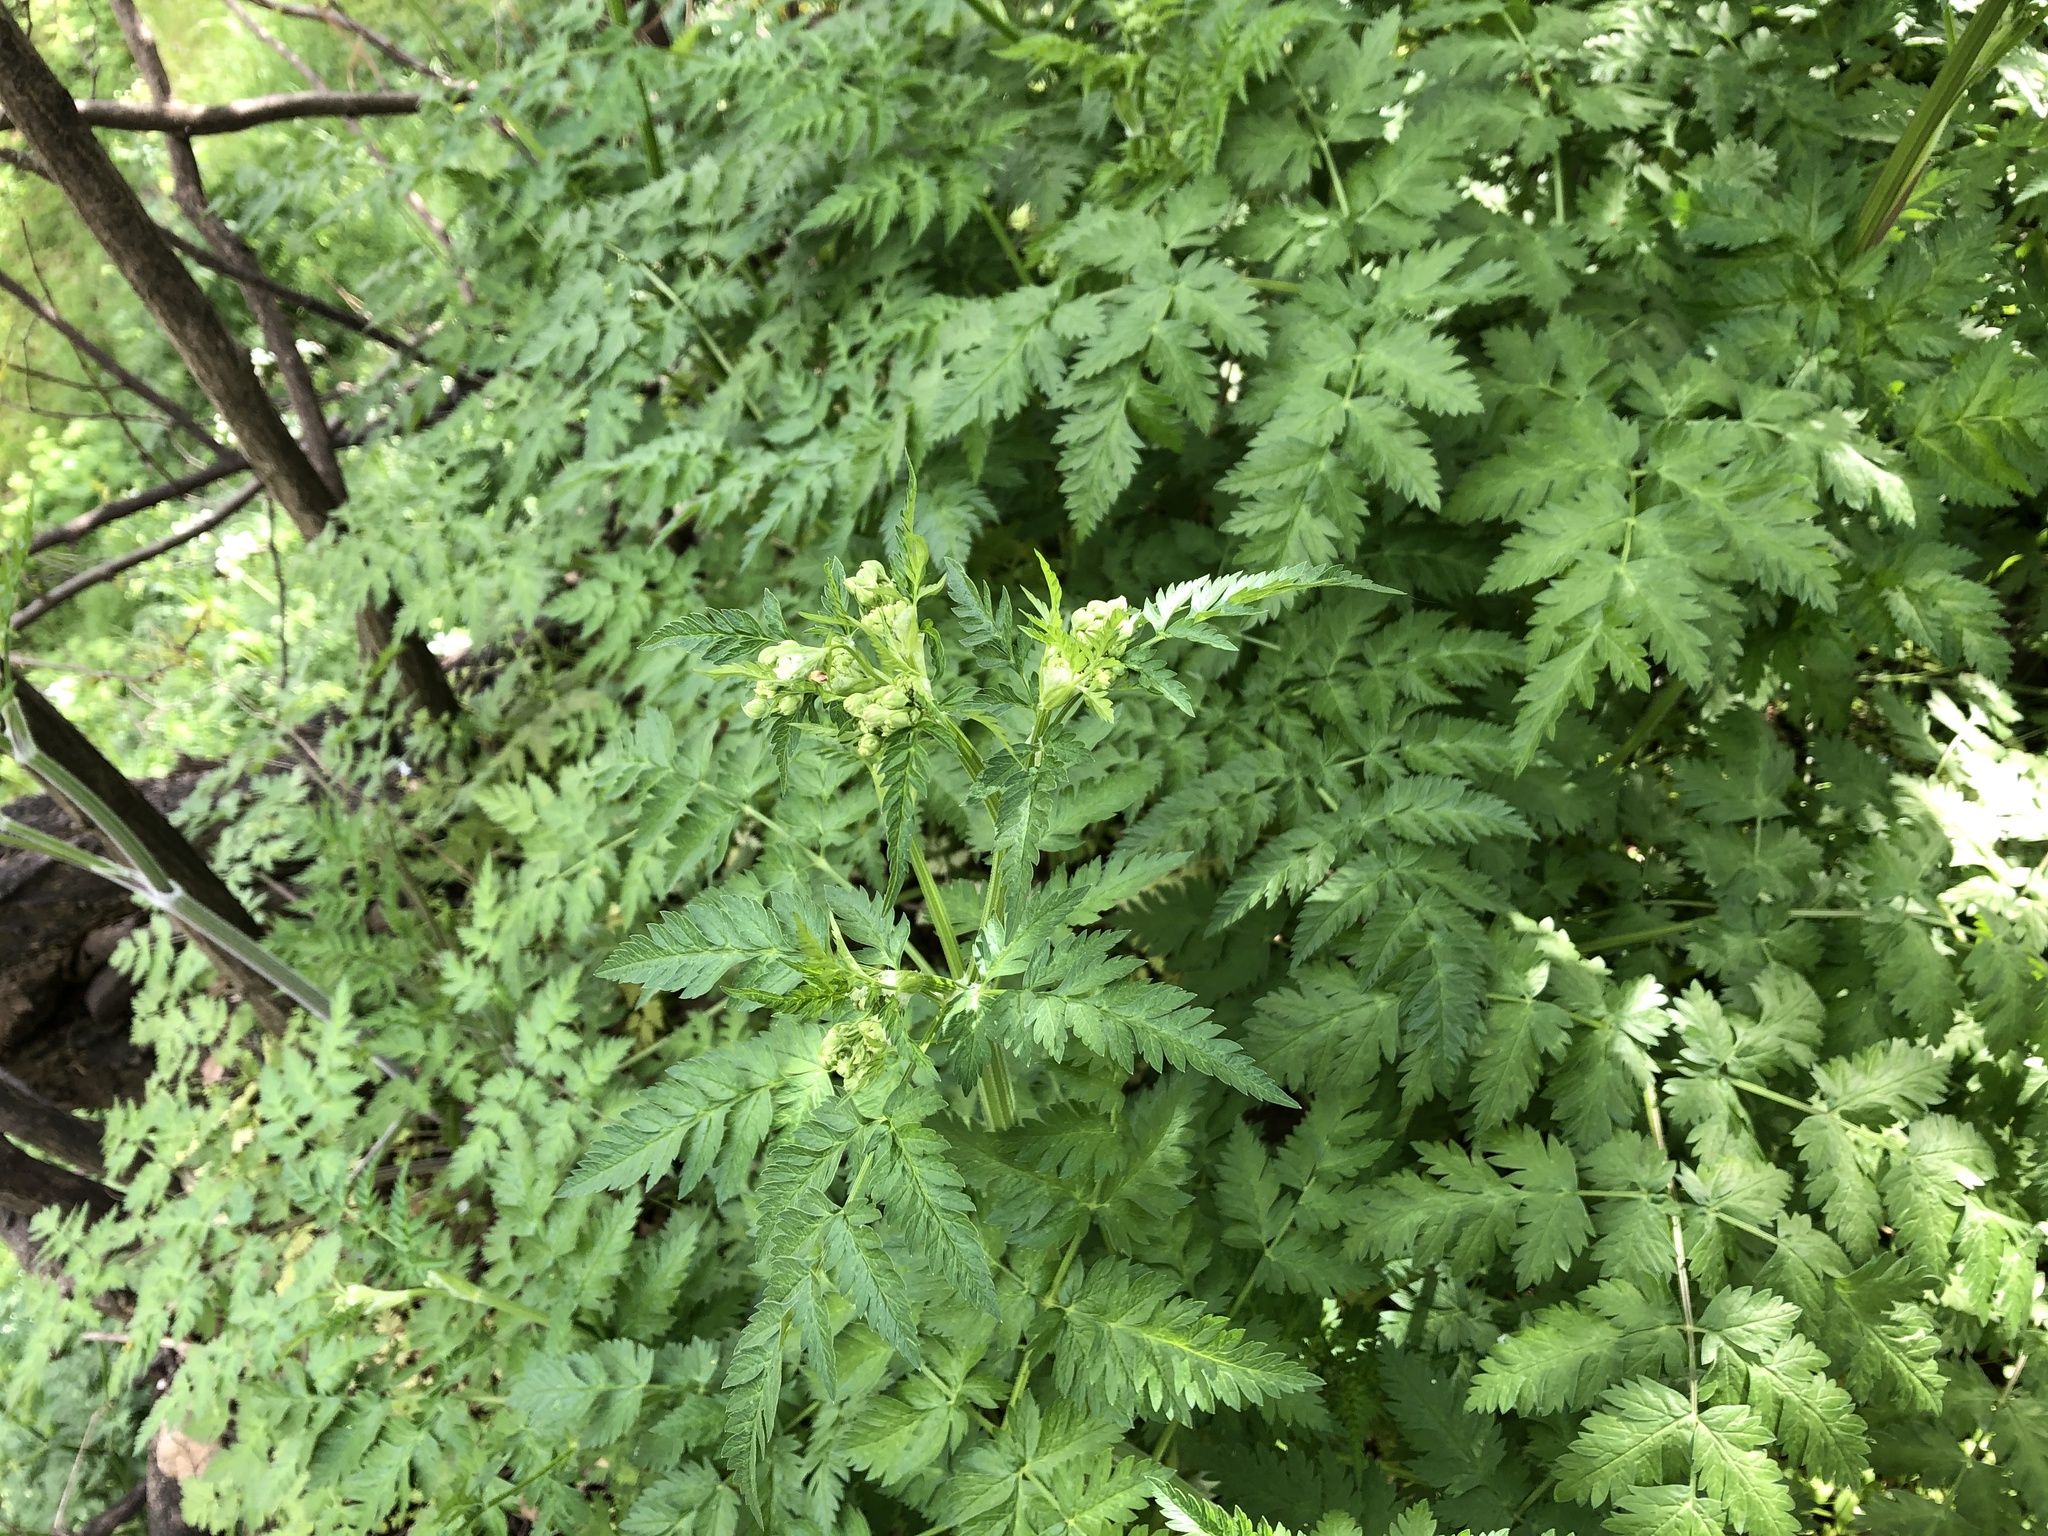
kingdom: Plantae
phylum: Tracheophyta
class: Magnoliopsida
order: Apiales
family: Apiaceae
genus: Anthriscus
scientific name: Anthriscus sylvestris
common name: Cow parsley
